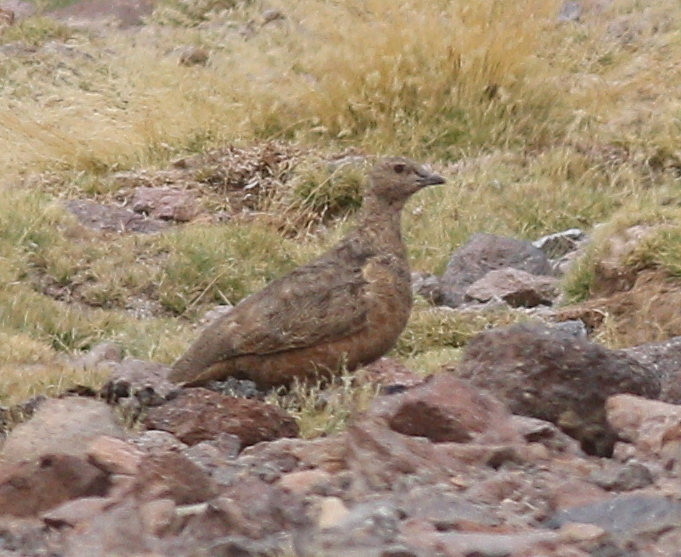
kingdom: Animalia
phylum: Chordata
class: Aves
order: Charadriiformes
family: Thinocoridae
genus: Attagis
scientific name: Attagis gayi
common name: Rufous-bellied seedsnipe
